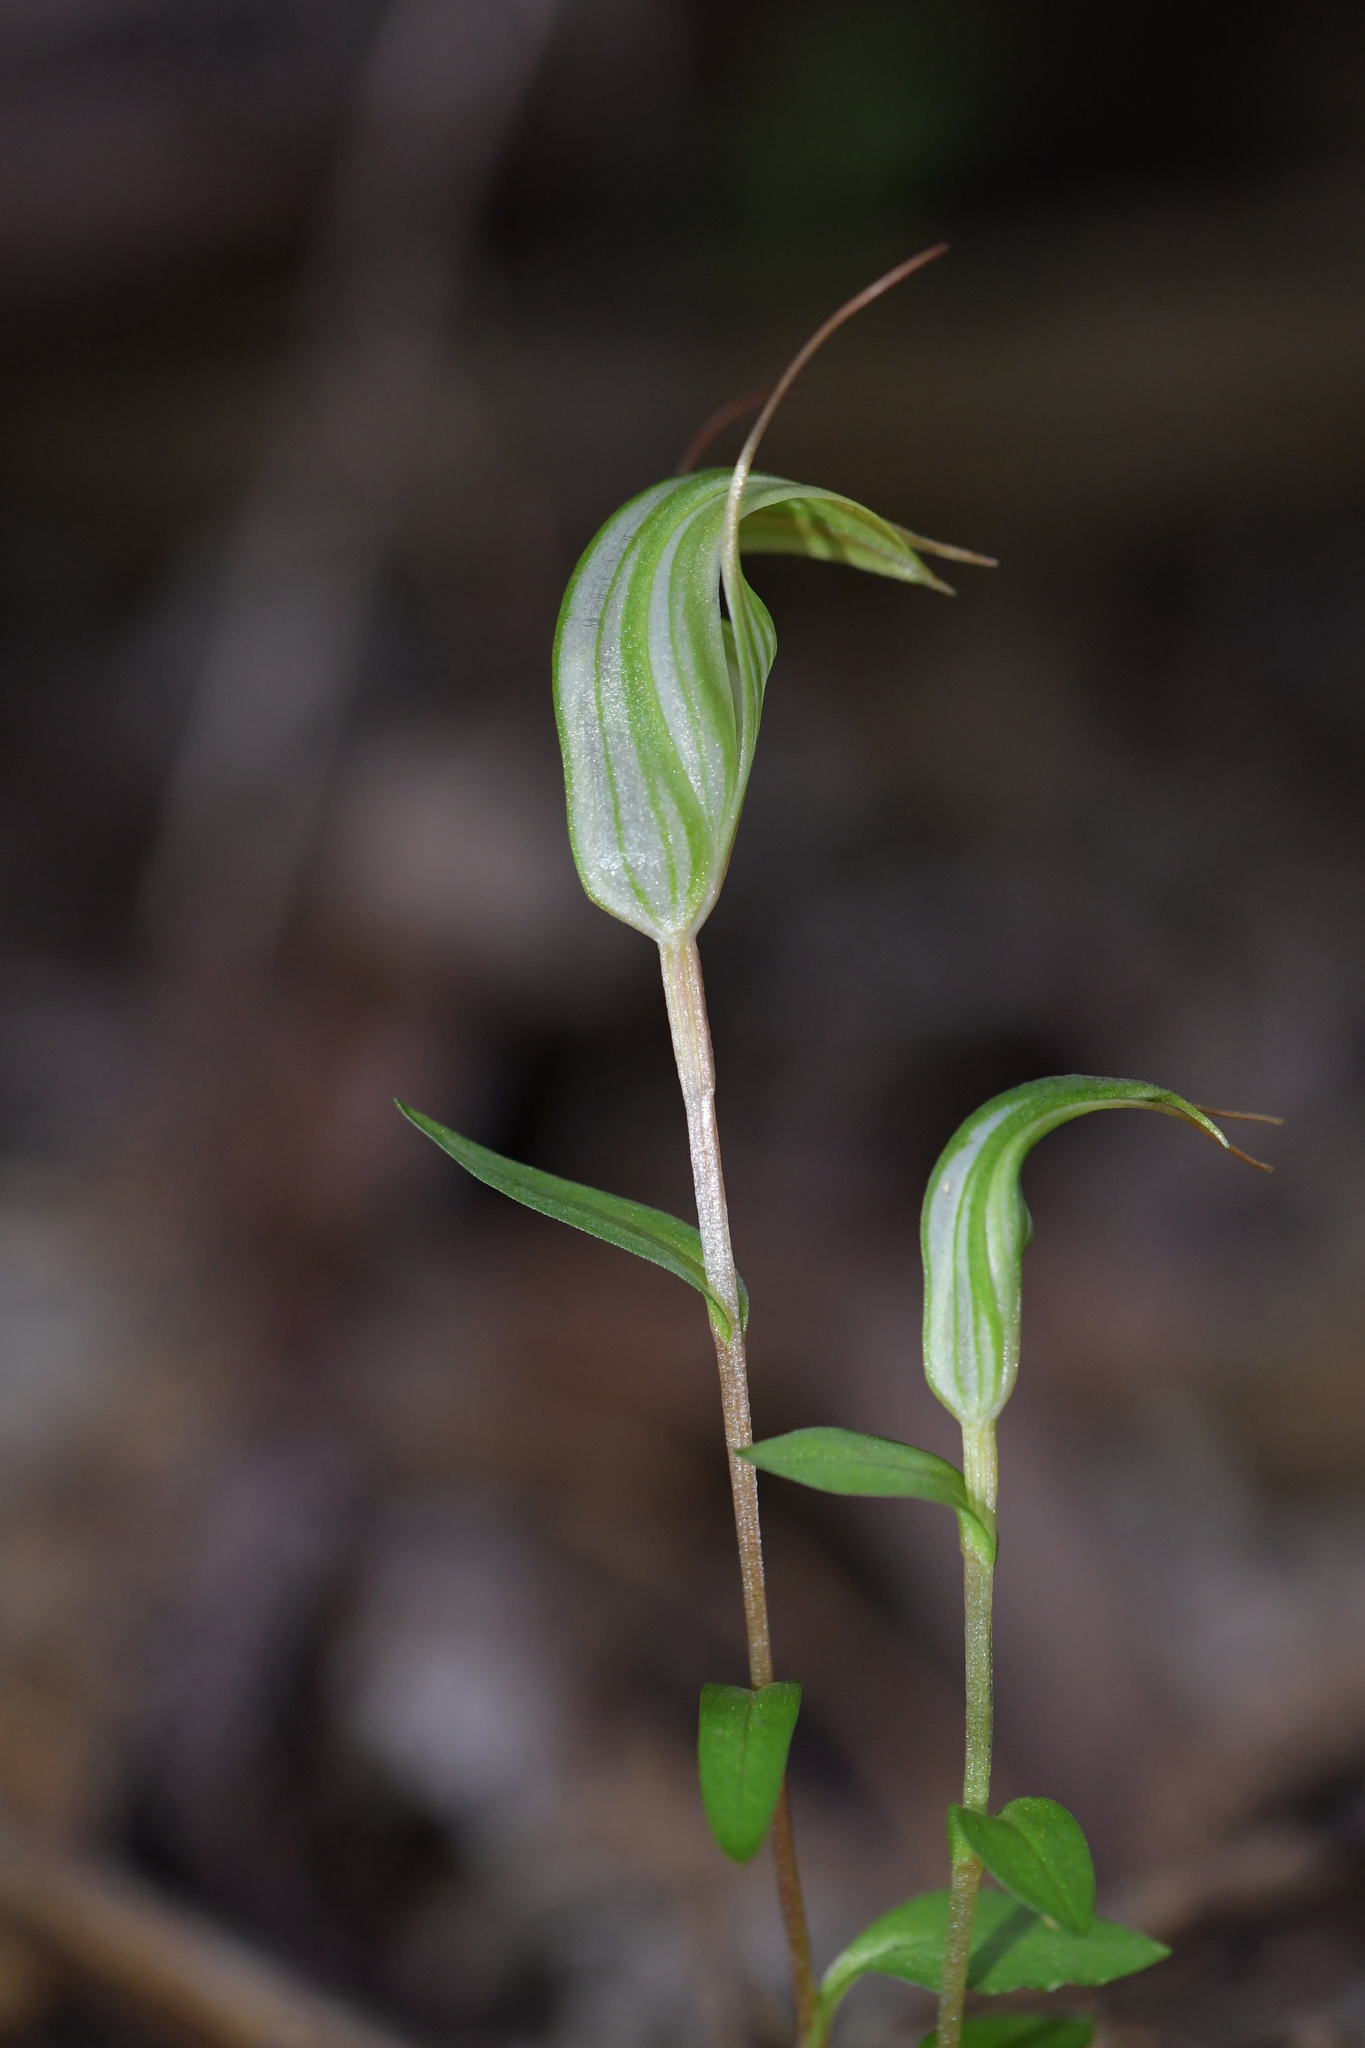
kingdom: Plantae
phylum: Tracheophyta
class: Liliopsida
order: Asparagales
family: Orchidaceae
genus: Pterostylis
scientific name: Pterostylis alobula
